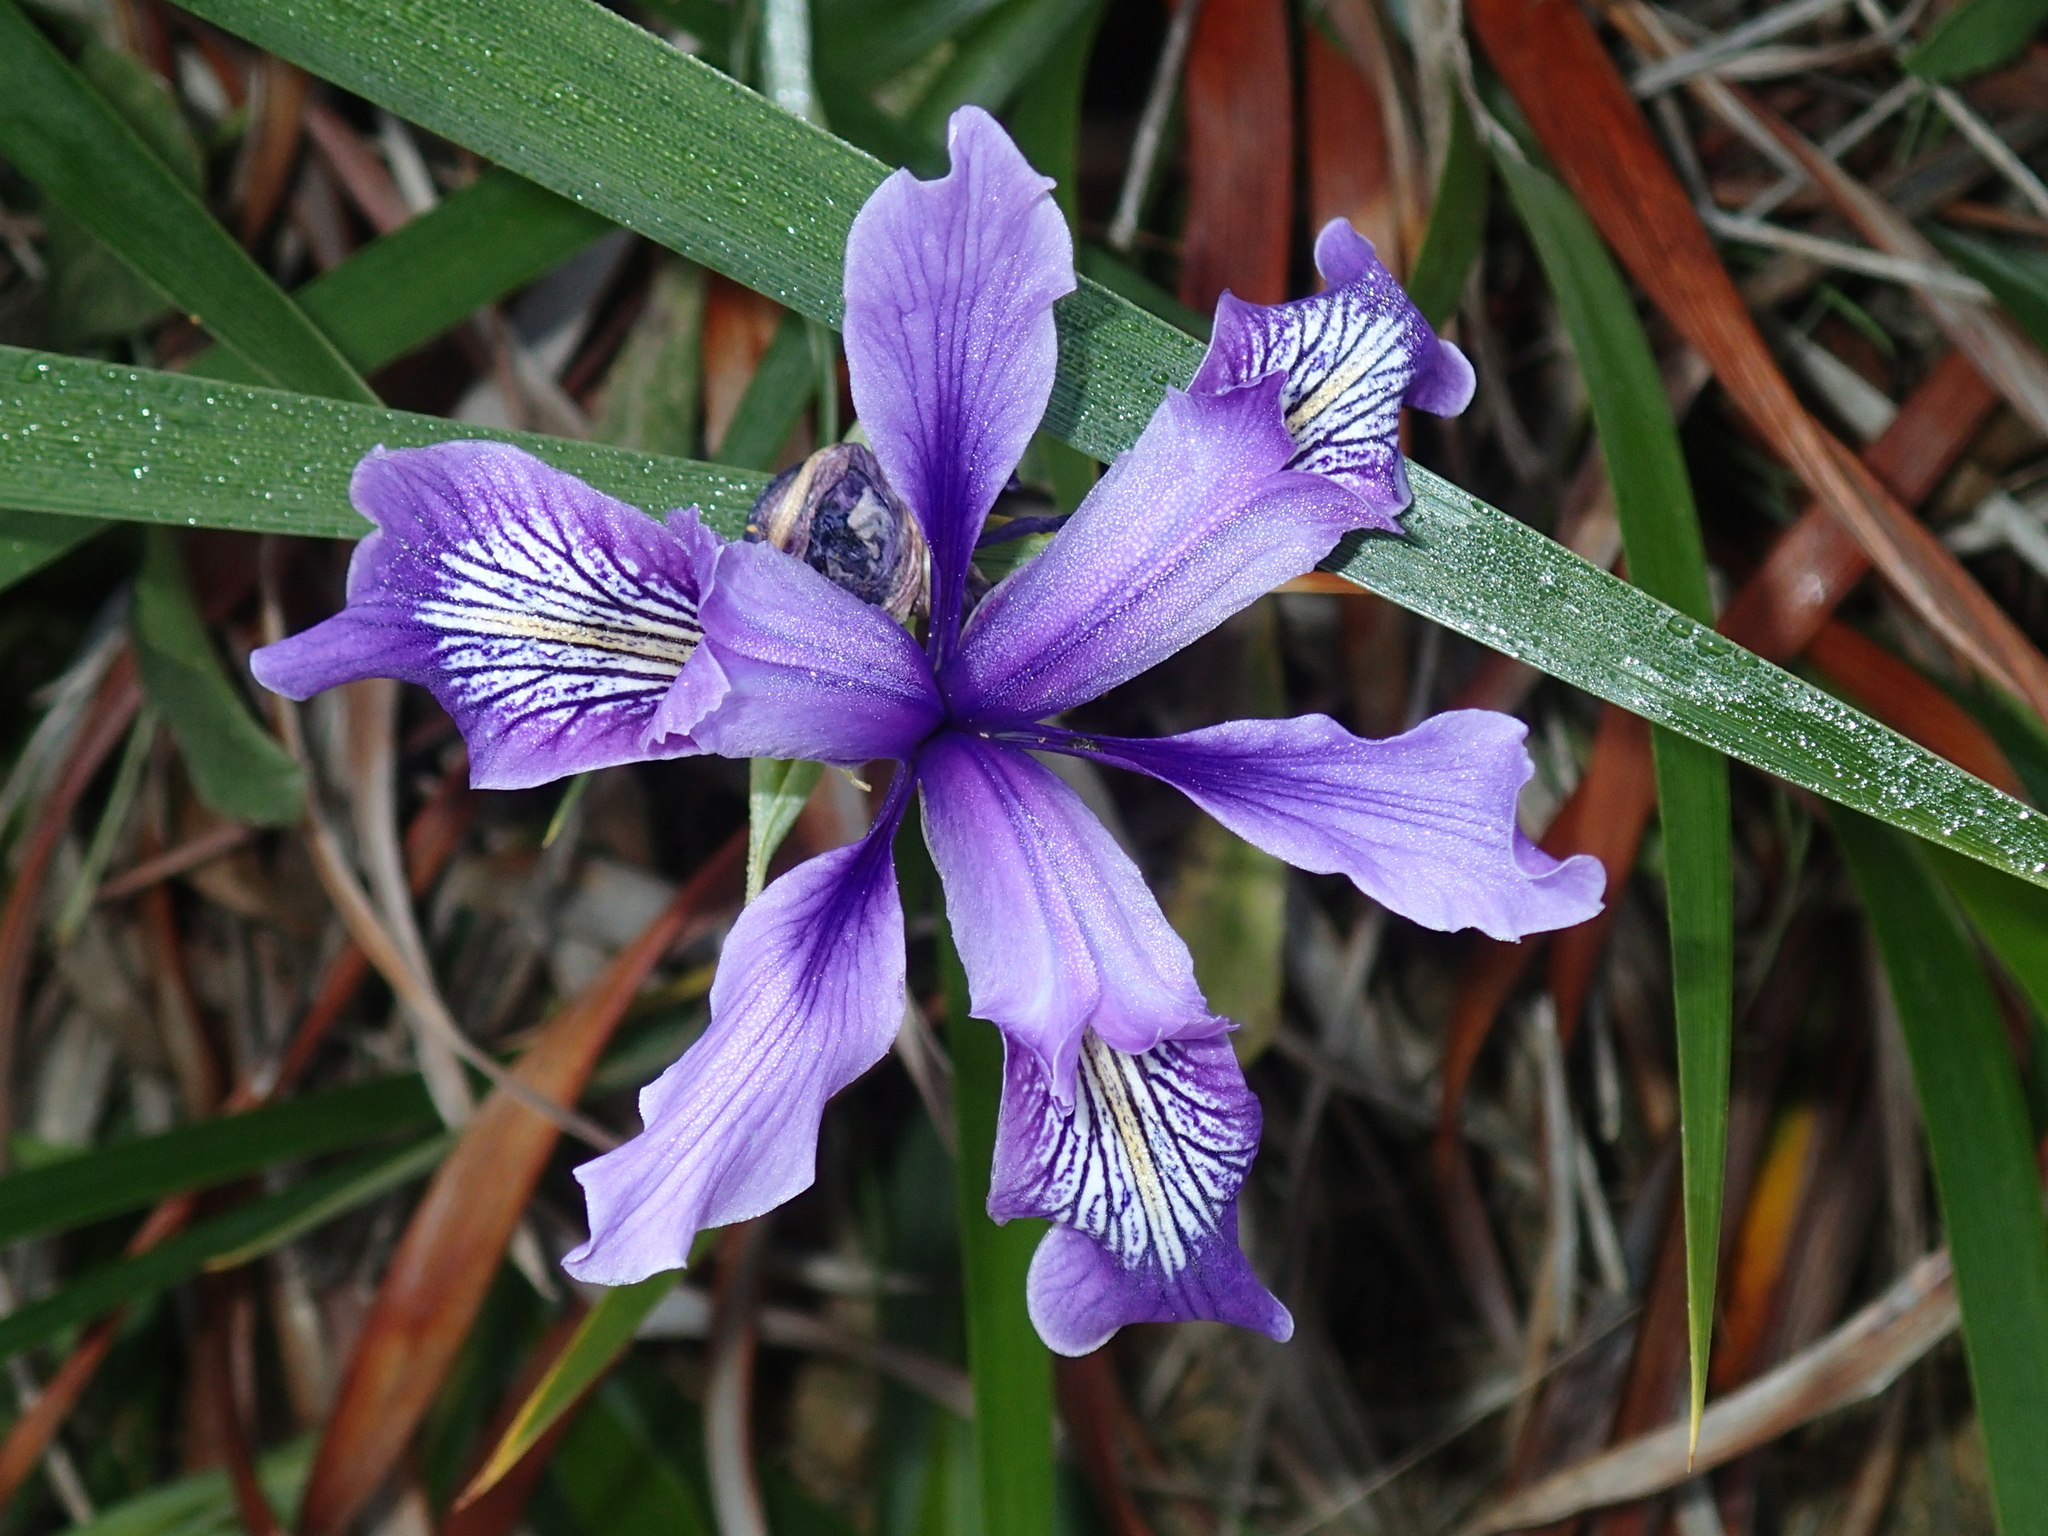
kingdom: Plantae
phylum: Tracheophyta
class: Liliopsida
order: Asparagales
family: Iridaceae
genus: Iris
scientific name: Iris douglasiana
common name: Marin iris
